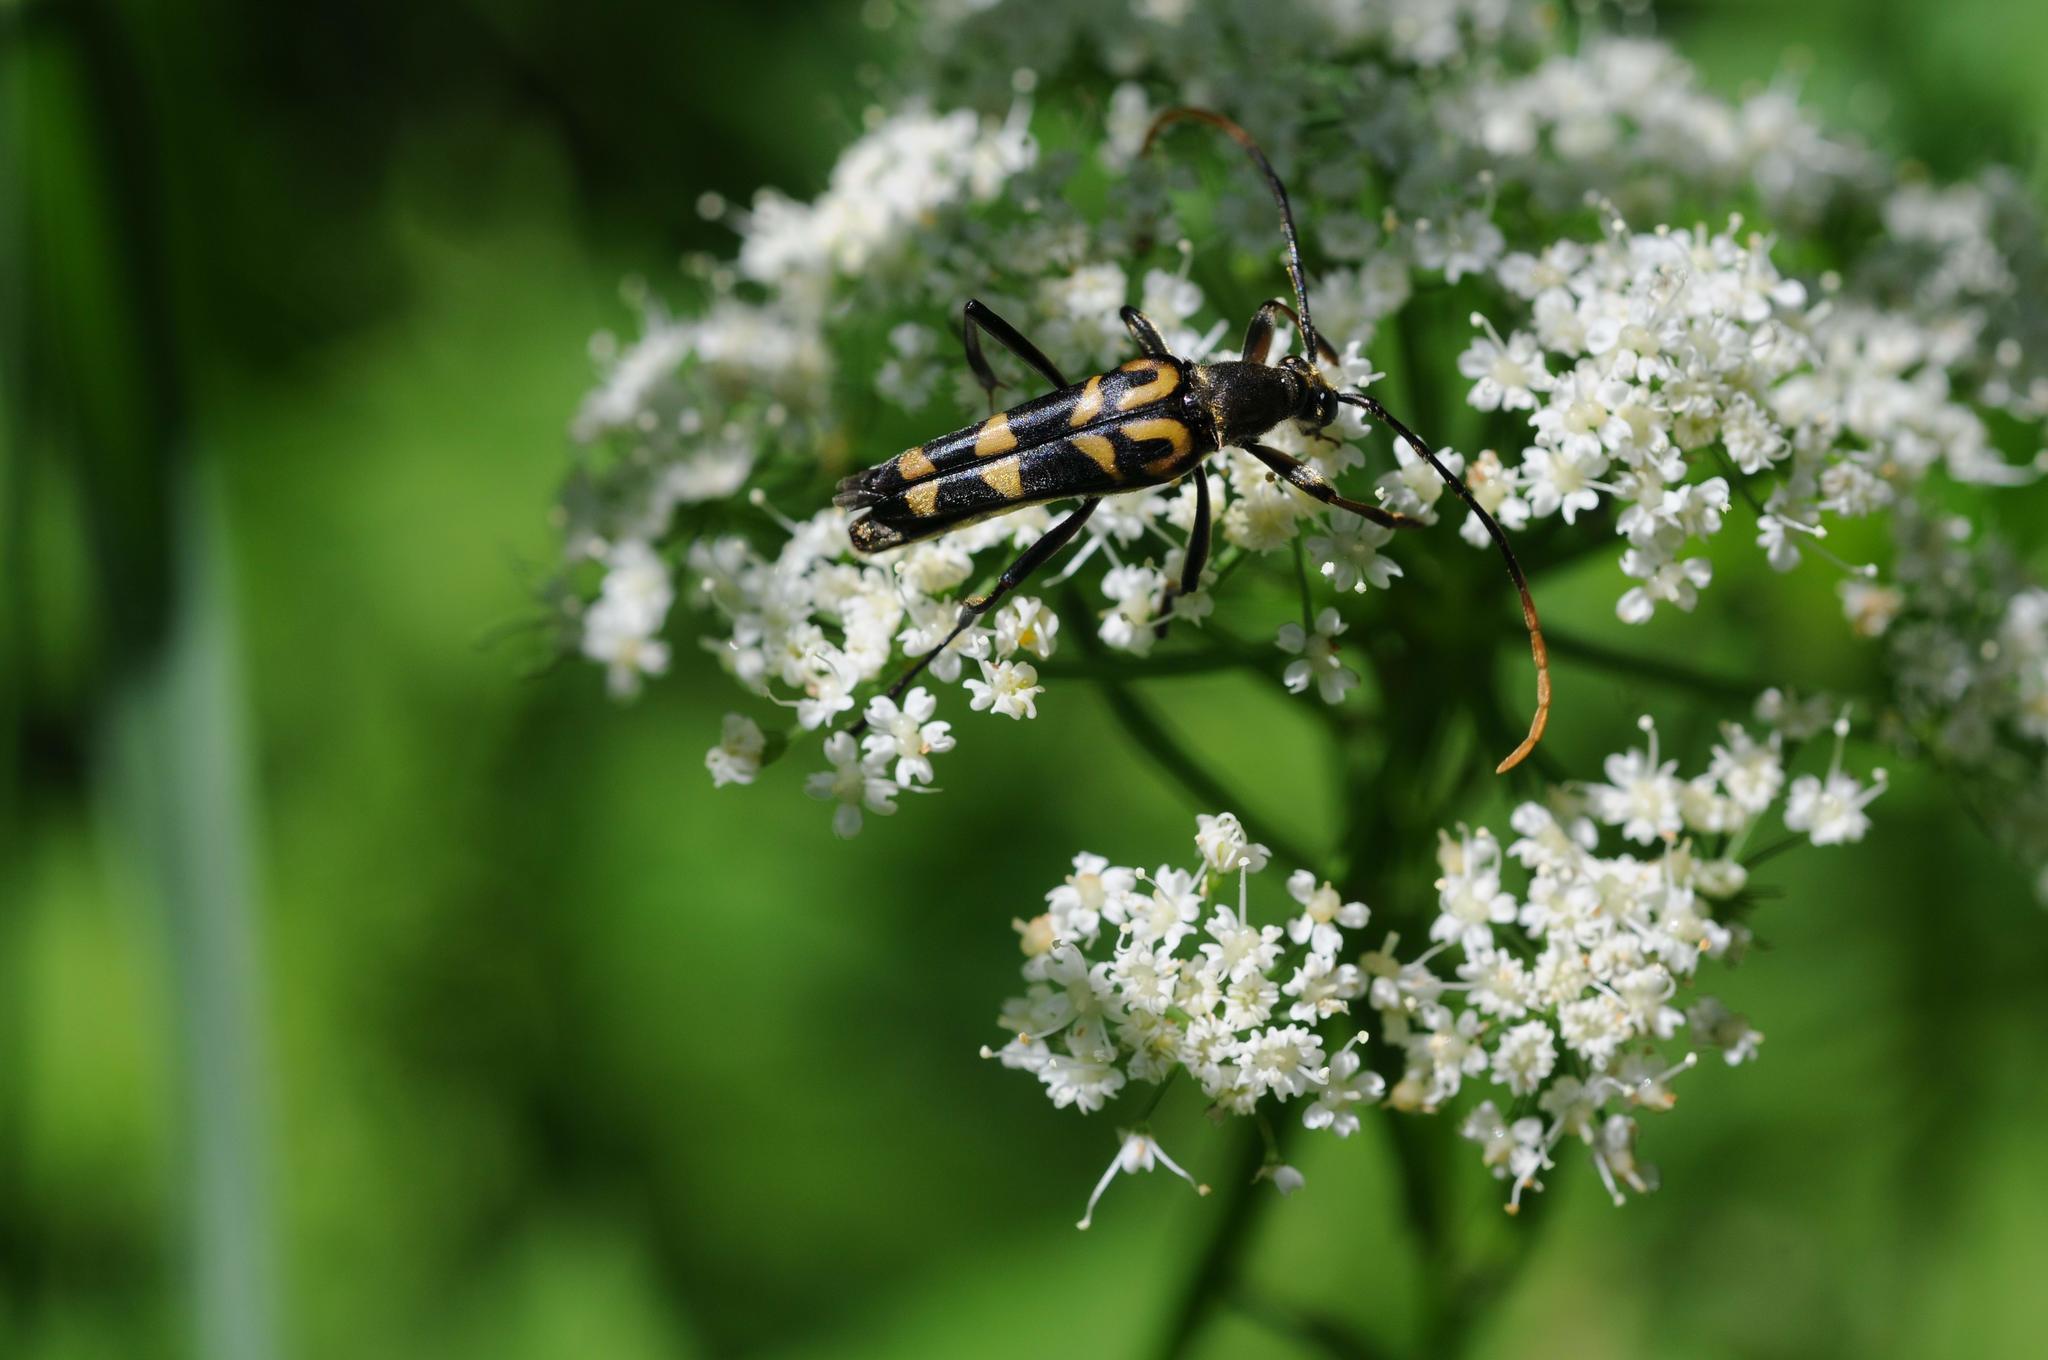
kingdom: Animalia
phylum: Arthropoda
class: Insecta
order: Coleoptera
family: Cerambycidae
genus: Leptura
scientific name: Leptura annularis
